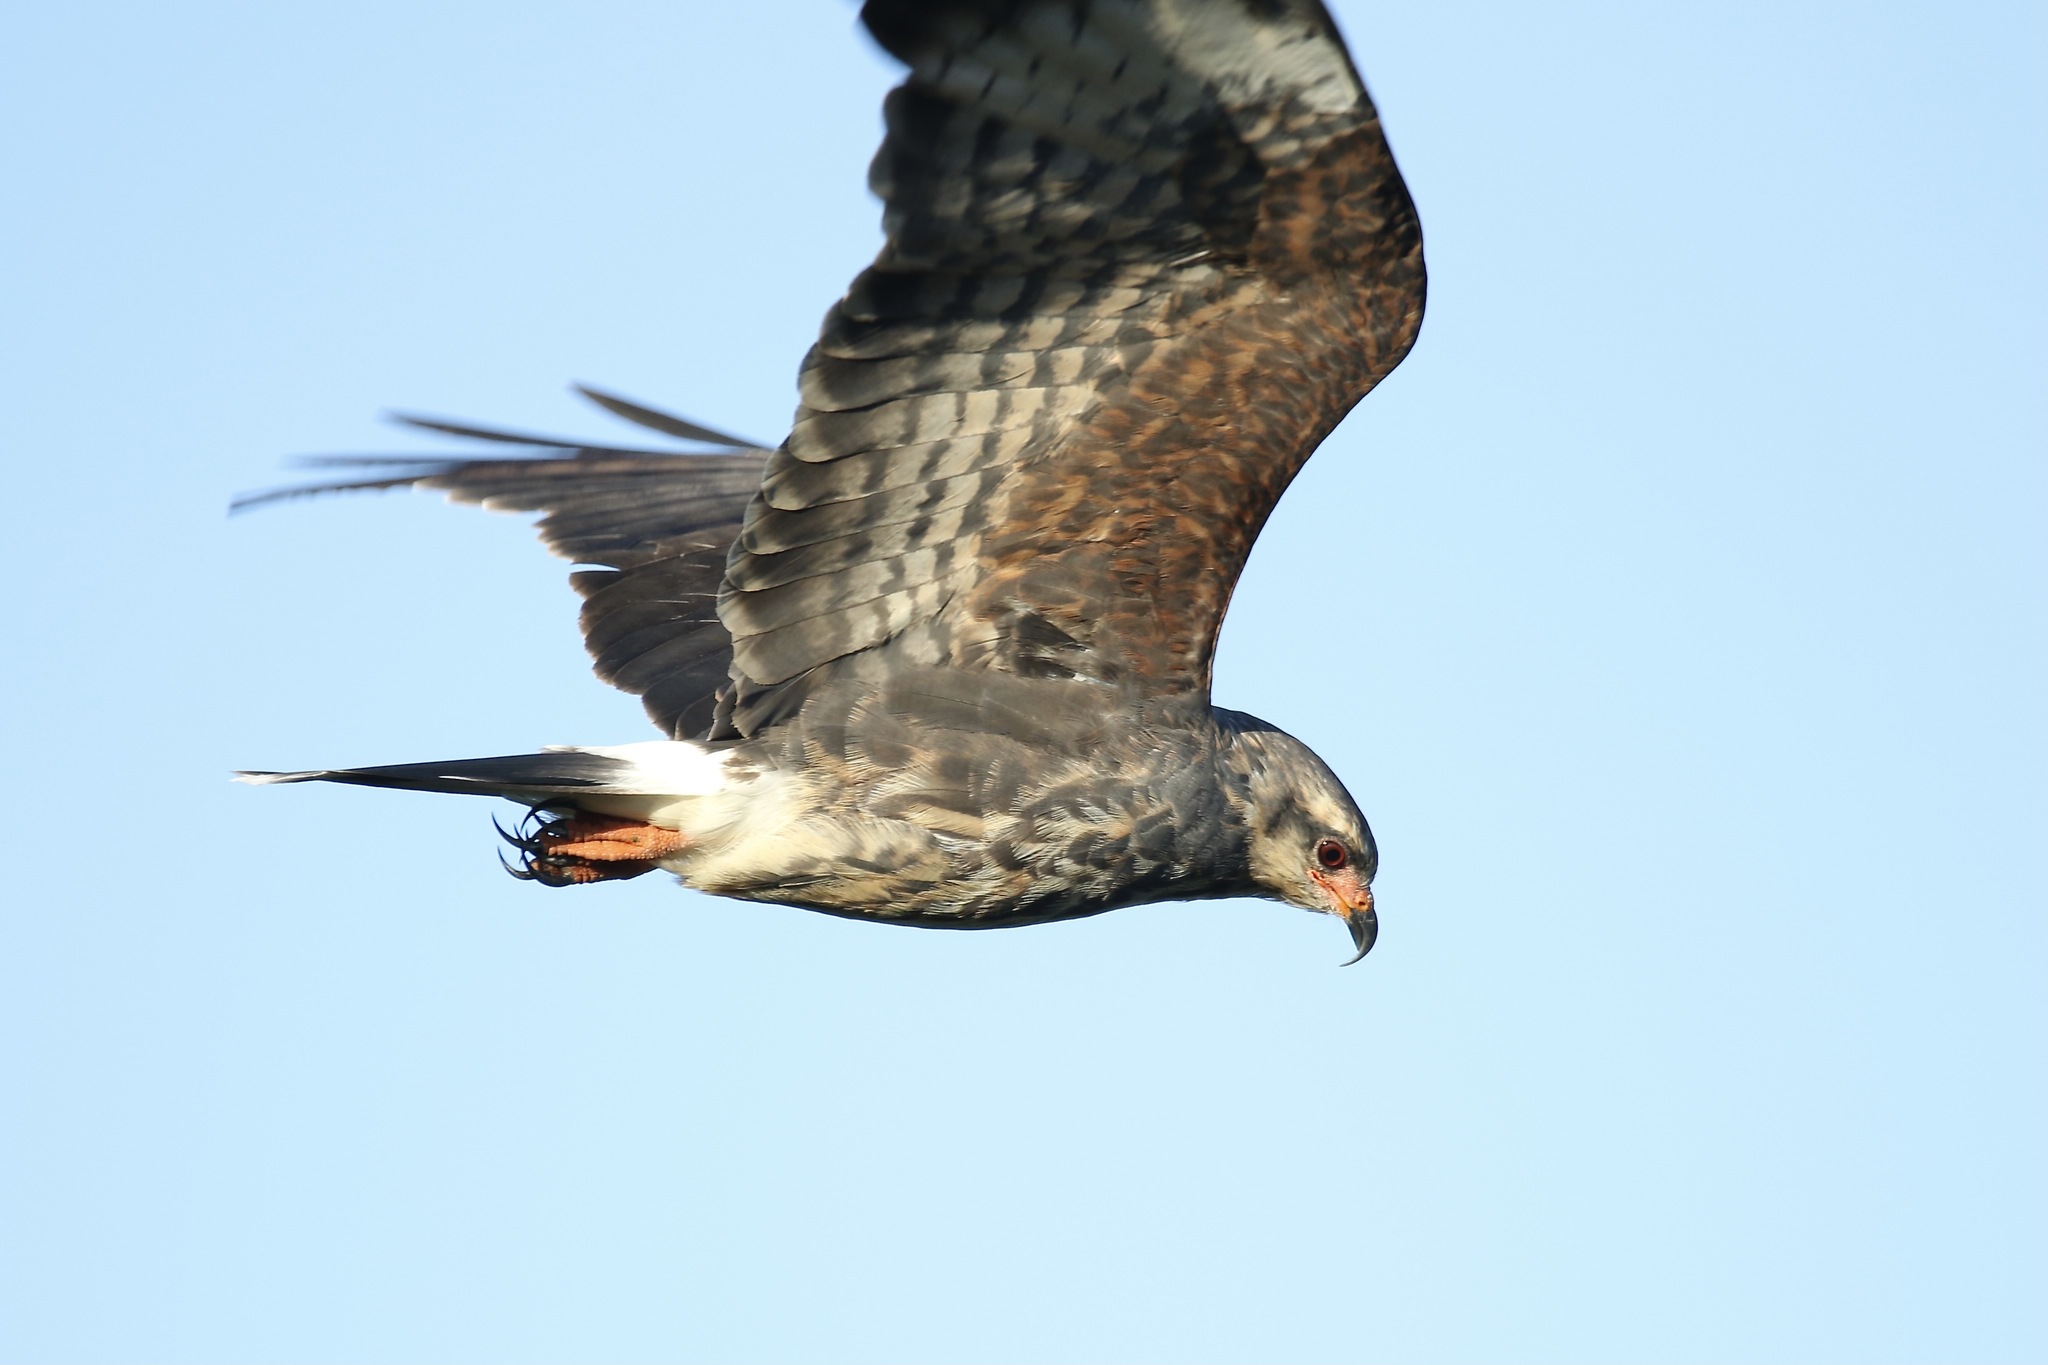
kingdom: Animalia
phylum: Chordata
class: Aves
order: Accipitriformes
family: Accipitridae
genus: Rostrhamus
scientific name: Rostrhamus sociabilis
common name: Snail kite
